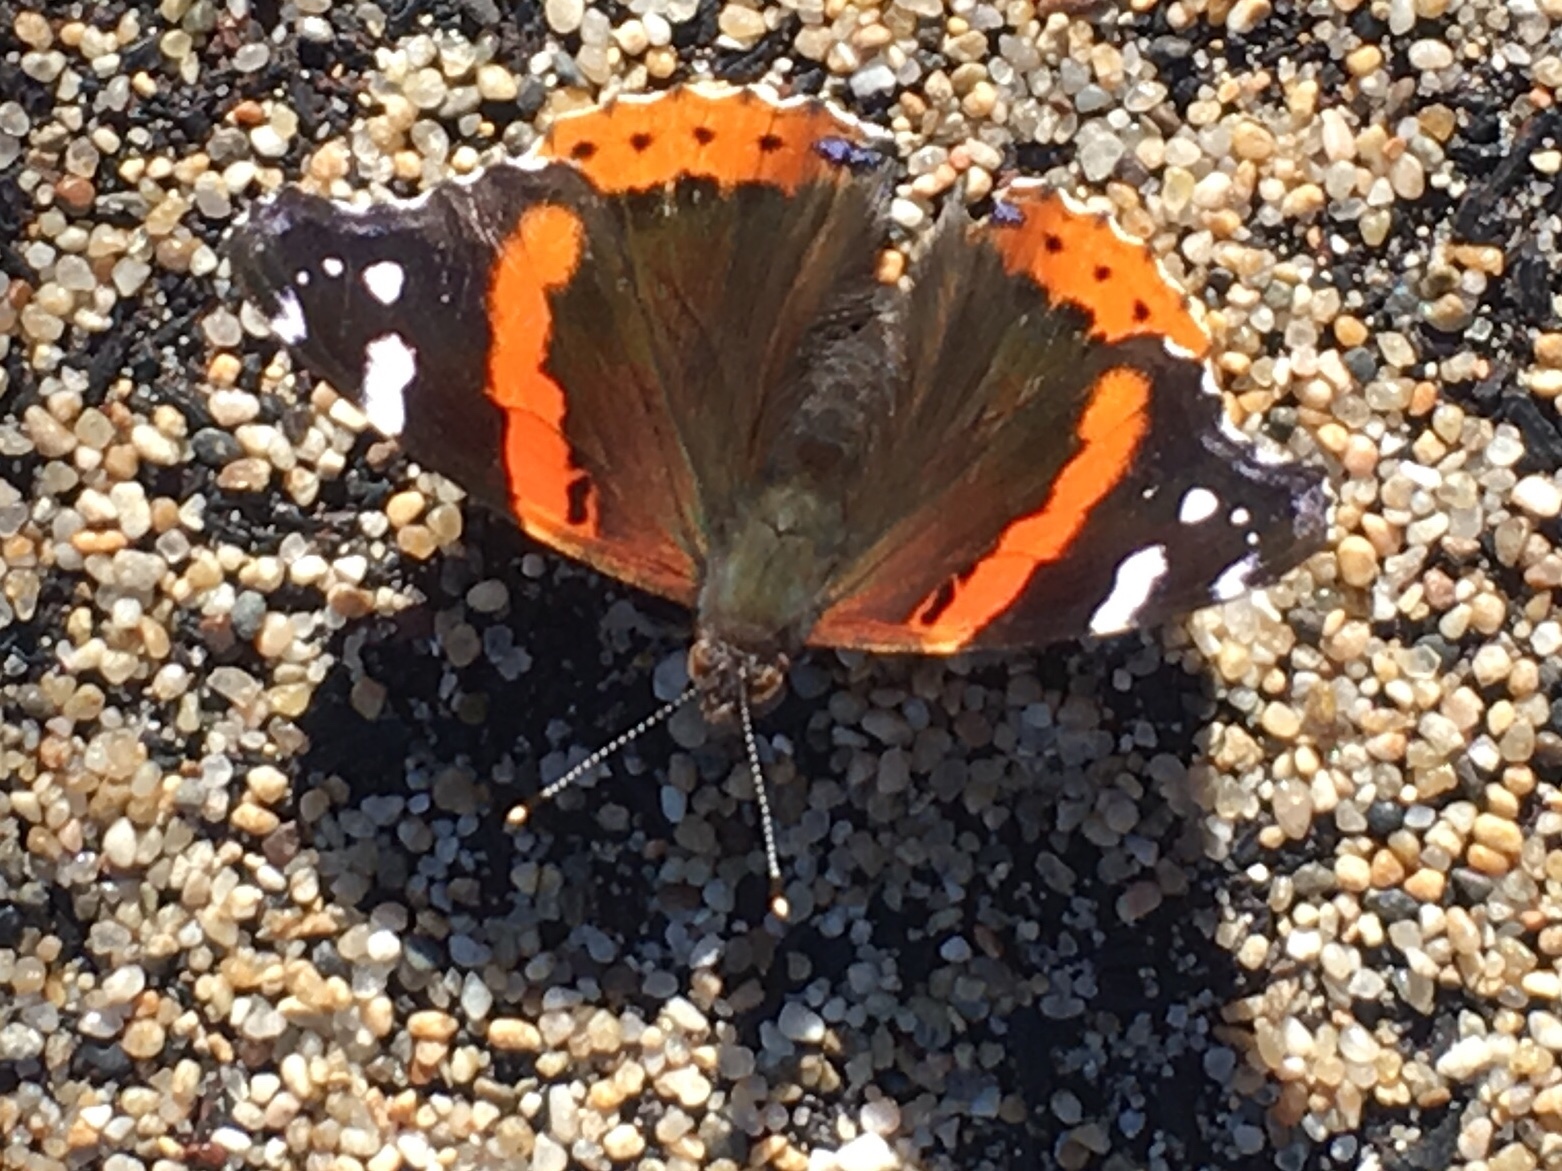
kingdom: Animalia
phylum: Arthropoda
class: Insecta
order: Lepidoptera
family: Nymphalidae
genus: Vanessa
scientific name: Vanessa atalanta
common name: Red admiral
